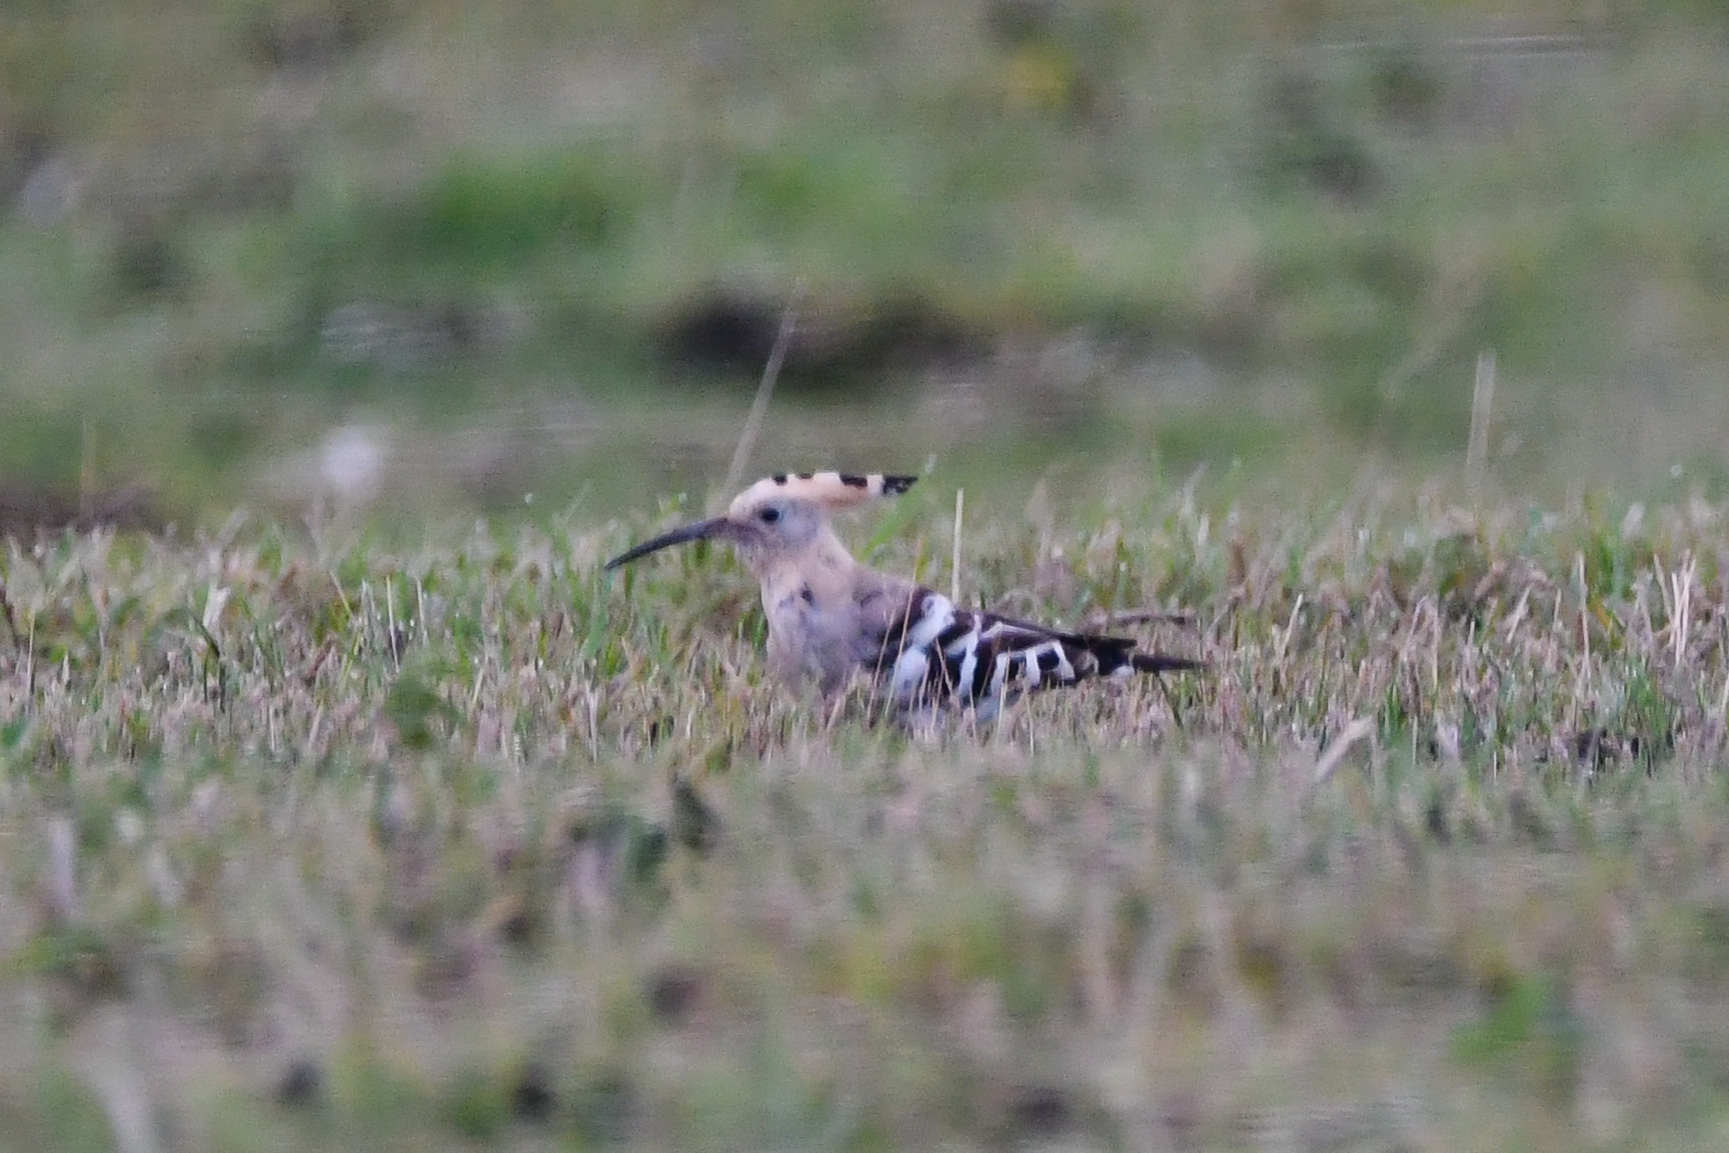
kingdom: Animalia
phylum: Chordata
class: Aves
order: Bucerotiformes
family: Upupidae
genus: Upupa
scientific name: Upupa epops
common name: Eurasian hoopoe
